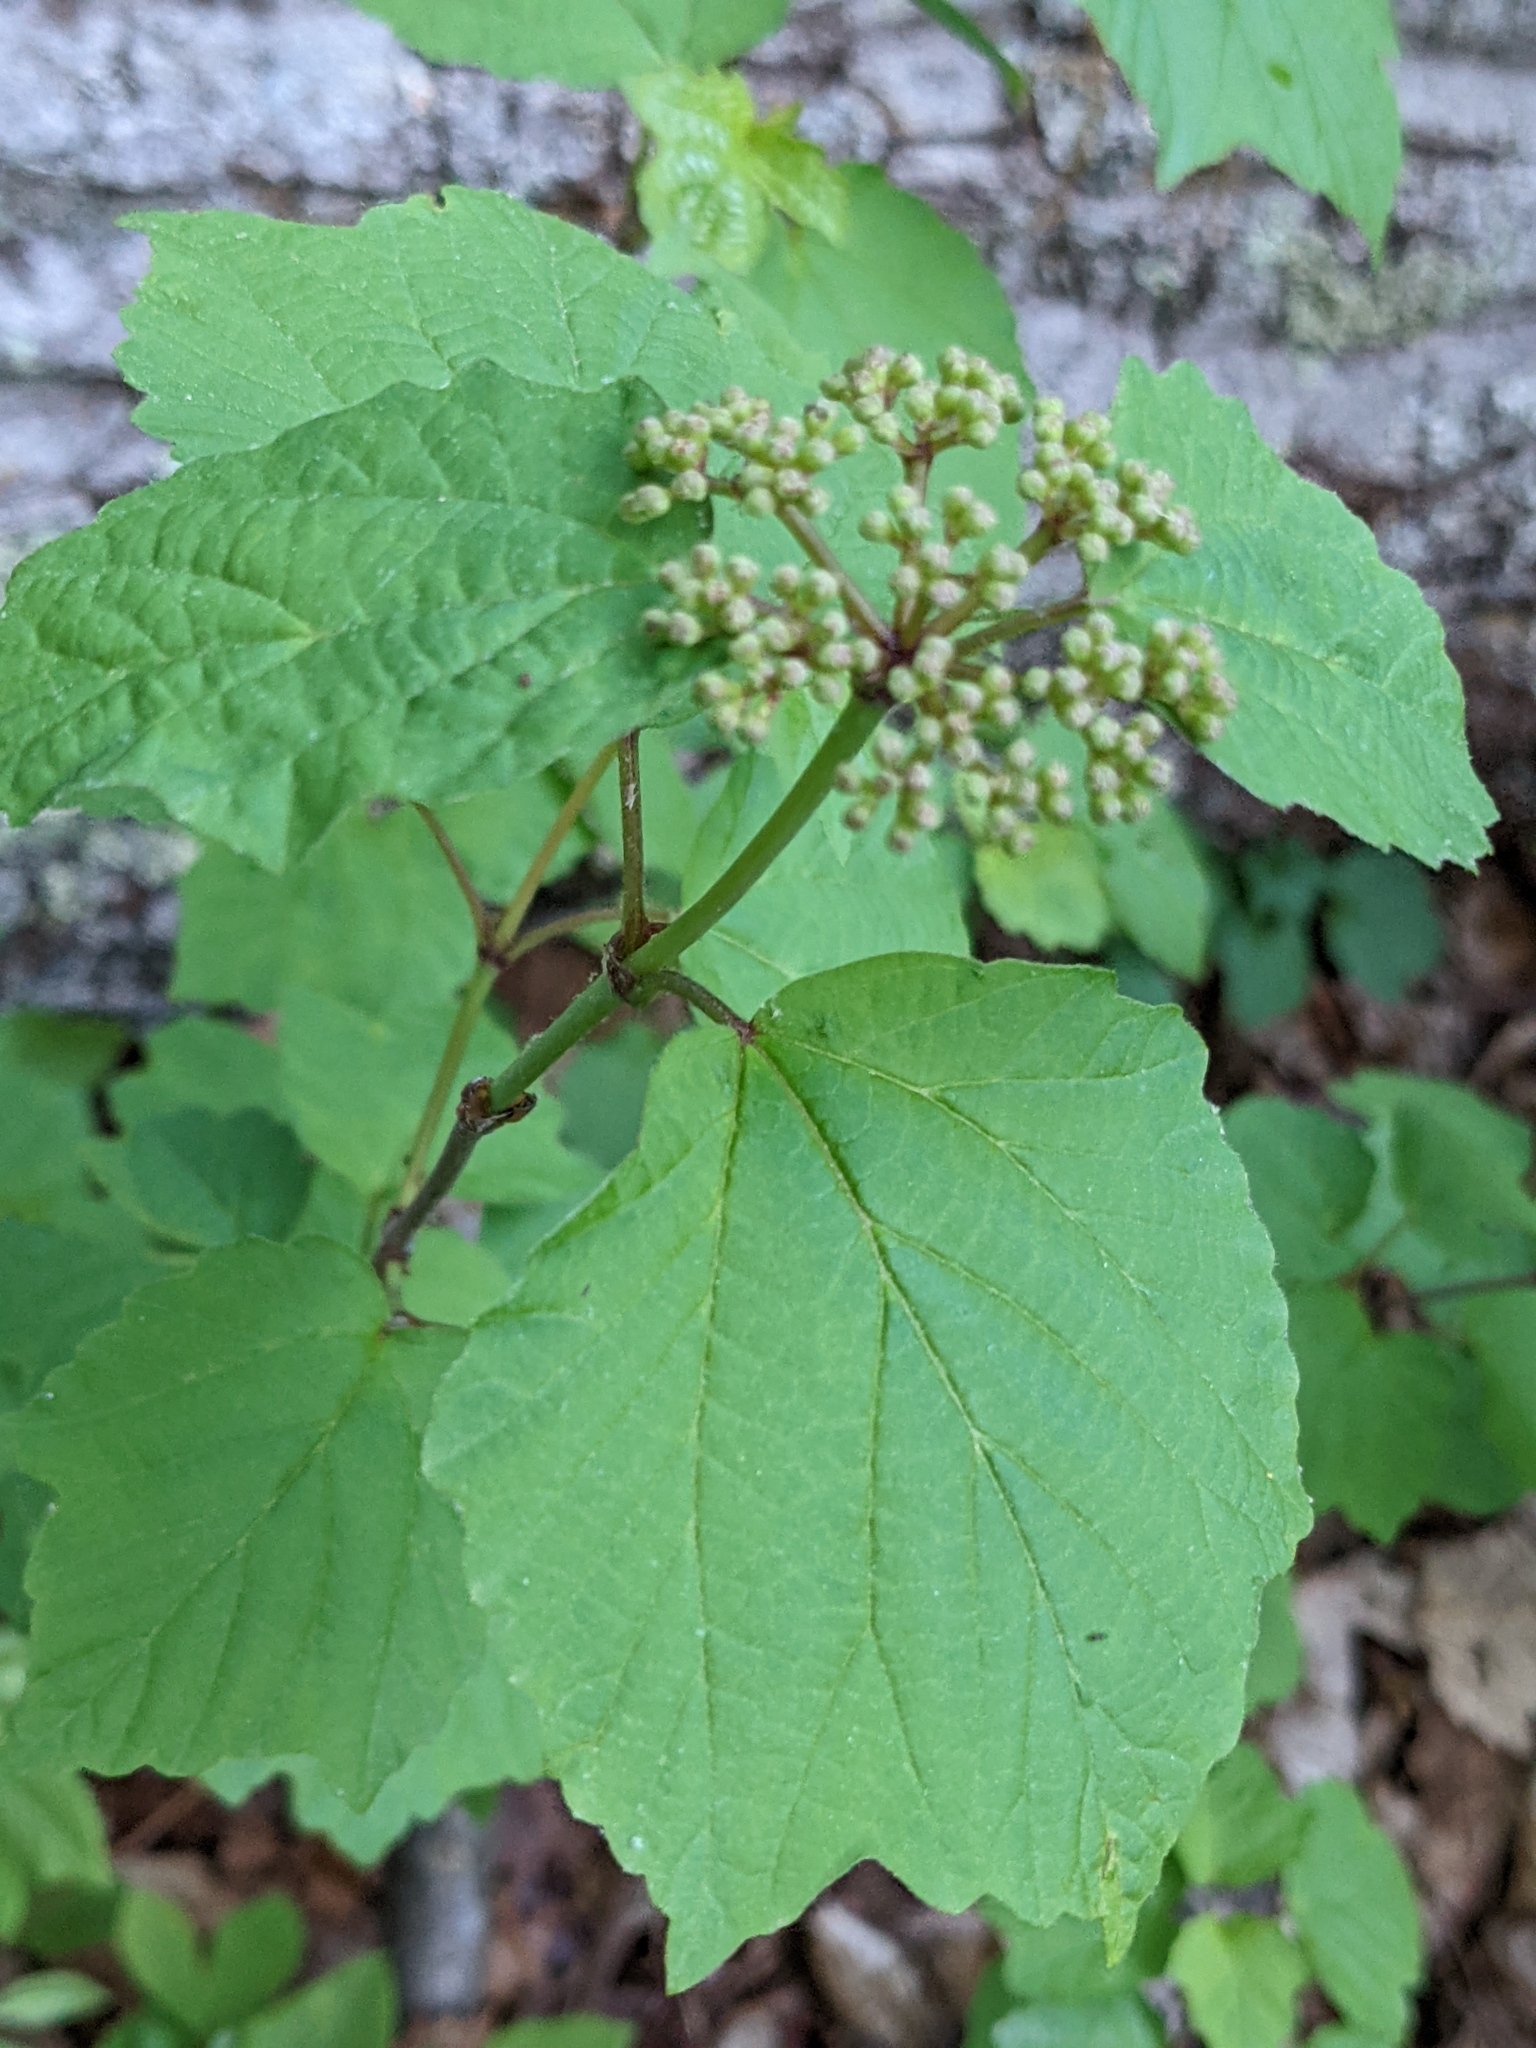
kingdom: Plantae
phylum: Tracheophyta
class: Magnoliopsida
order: Dipsacales
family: Viburnaceae
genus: Viburnum
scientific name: Viburnum acerifolium
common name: Dockmackie
